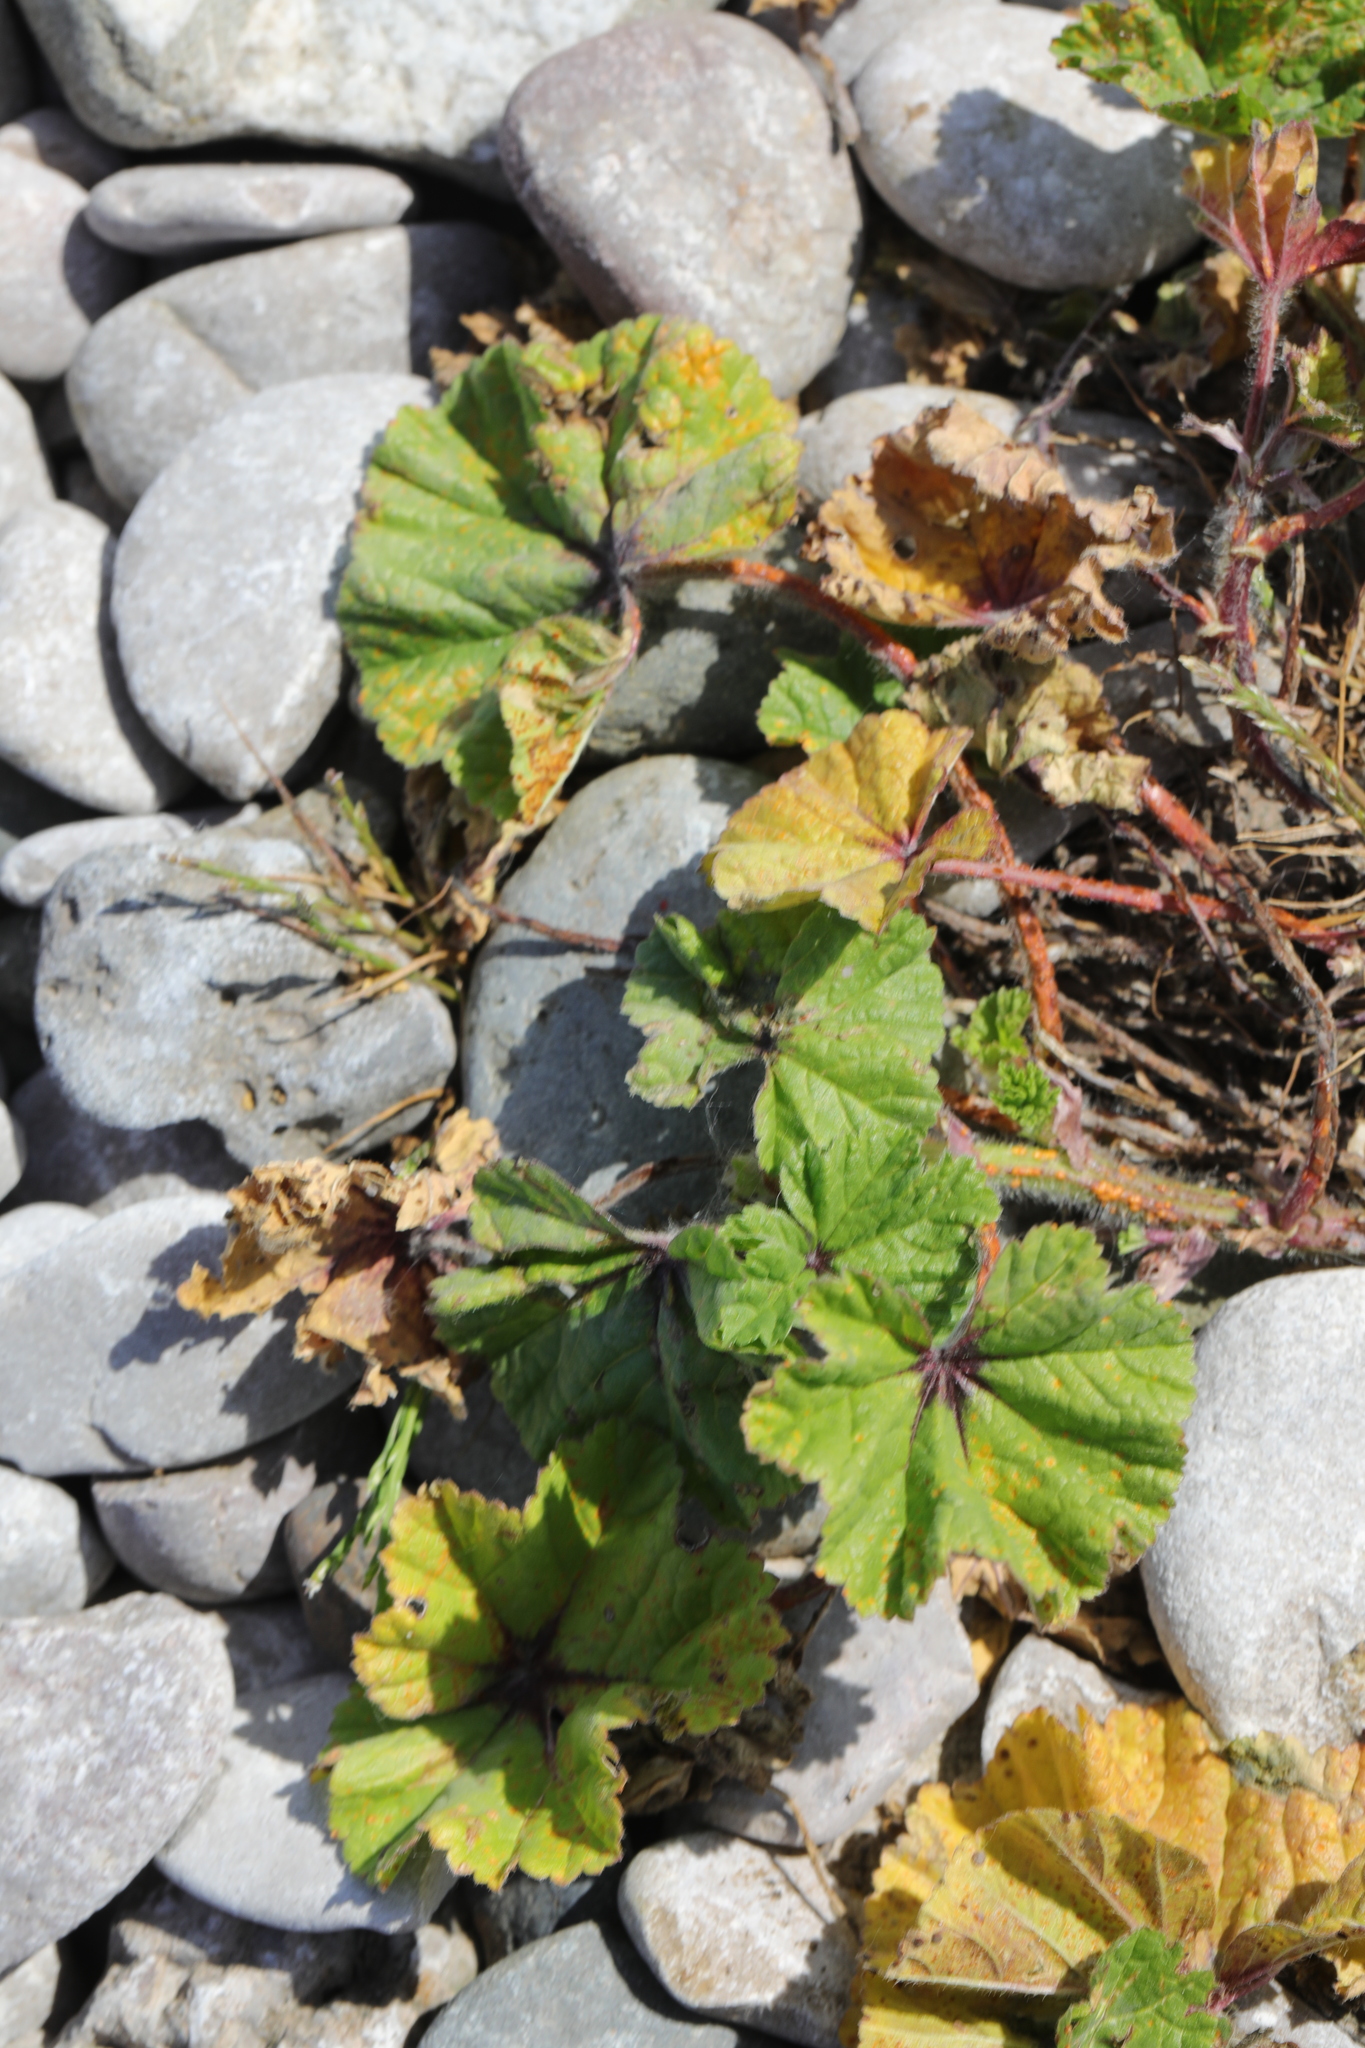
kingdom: Plantae
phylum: Tracheophyta
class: Magnoliopsida
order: Malvales
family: Malvaceae
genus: Malva
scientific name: Malva sylvestris
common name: Common mallow
